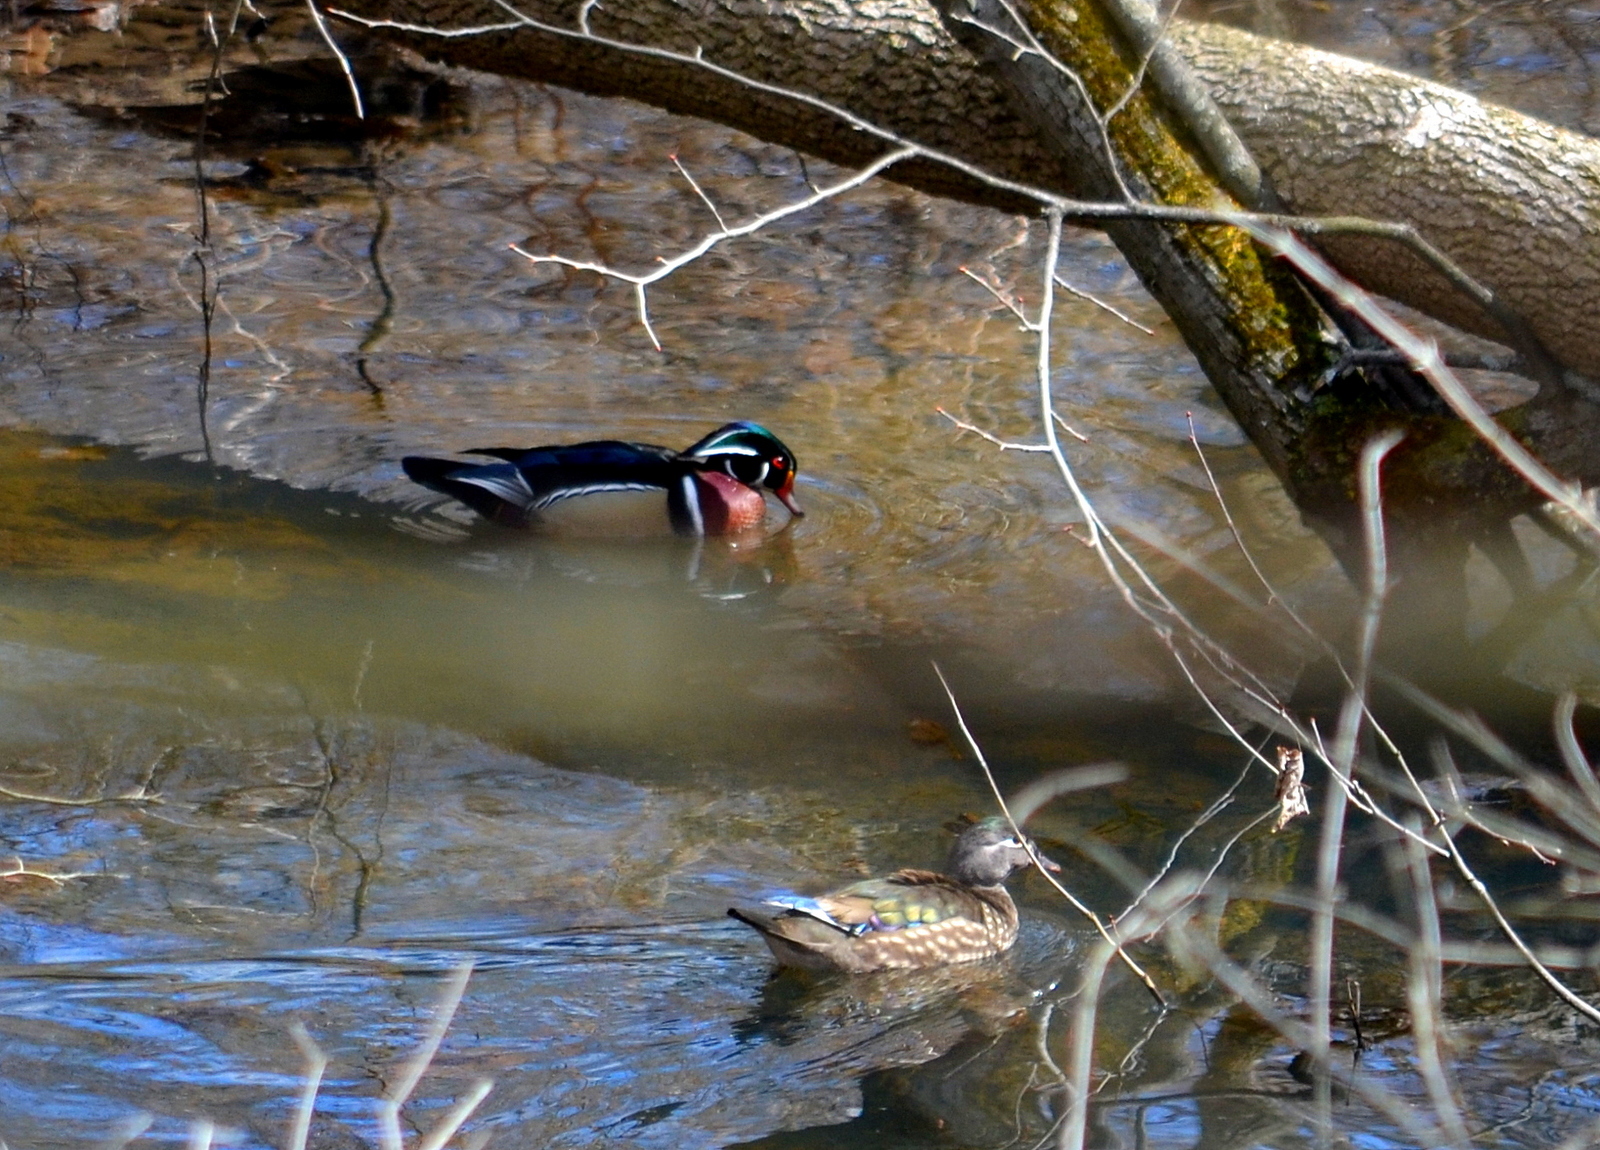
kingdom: Animalia
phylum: Chordata
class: Aves
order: Anseriformes
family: Anatidae
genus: Aix
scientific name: Aix sponsa
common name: Wood duck
